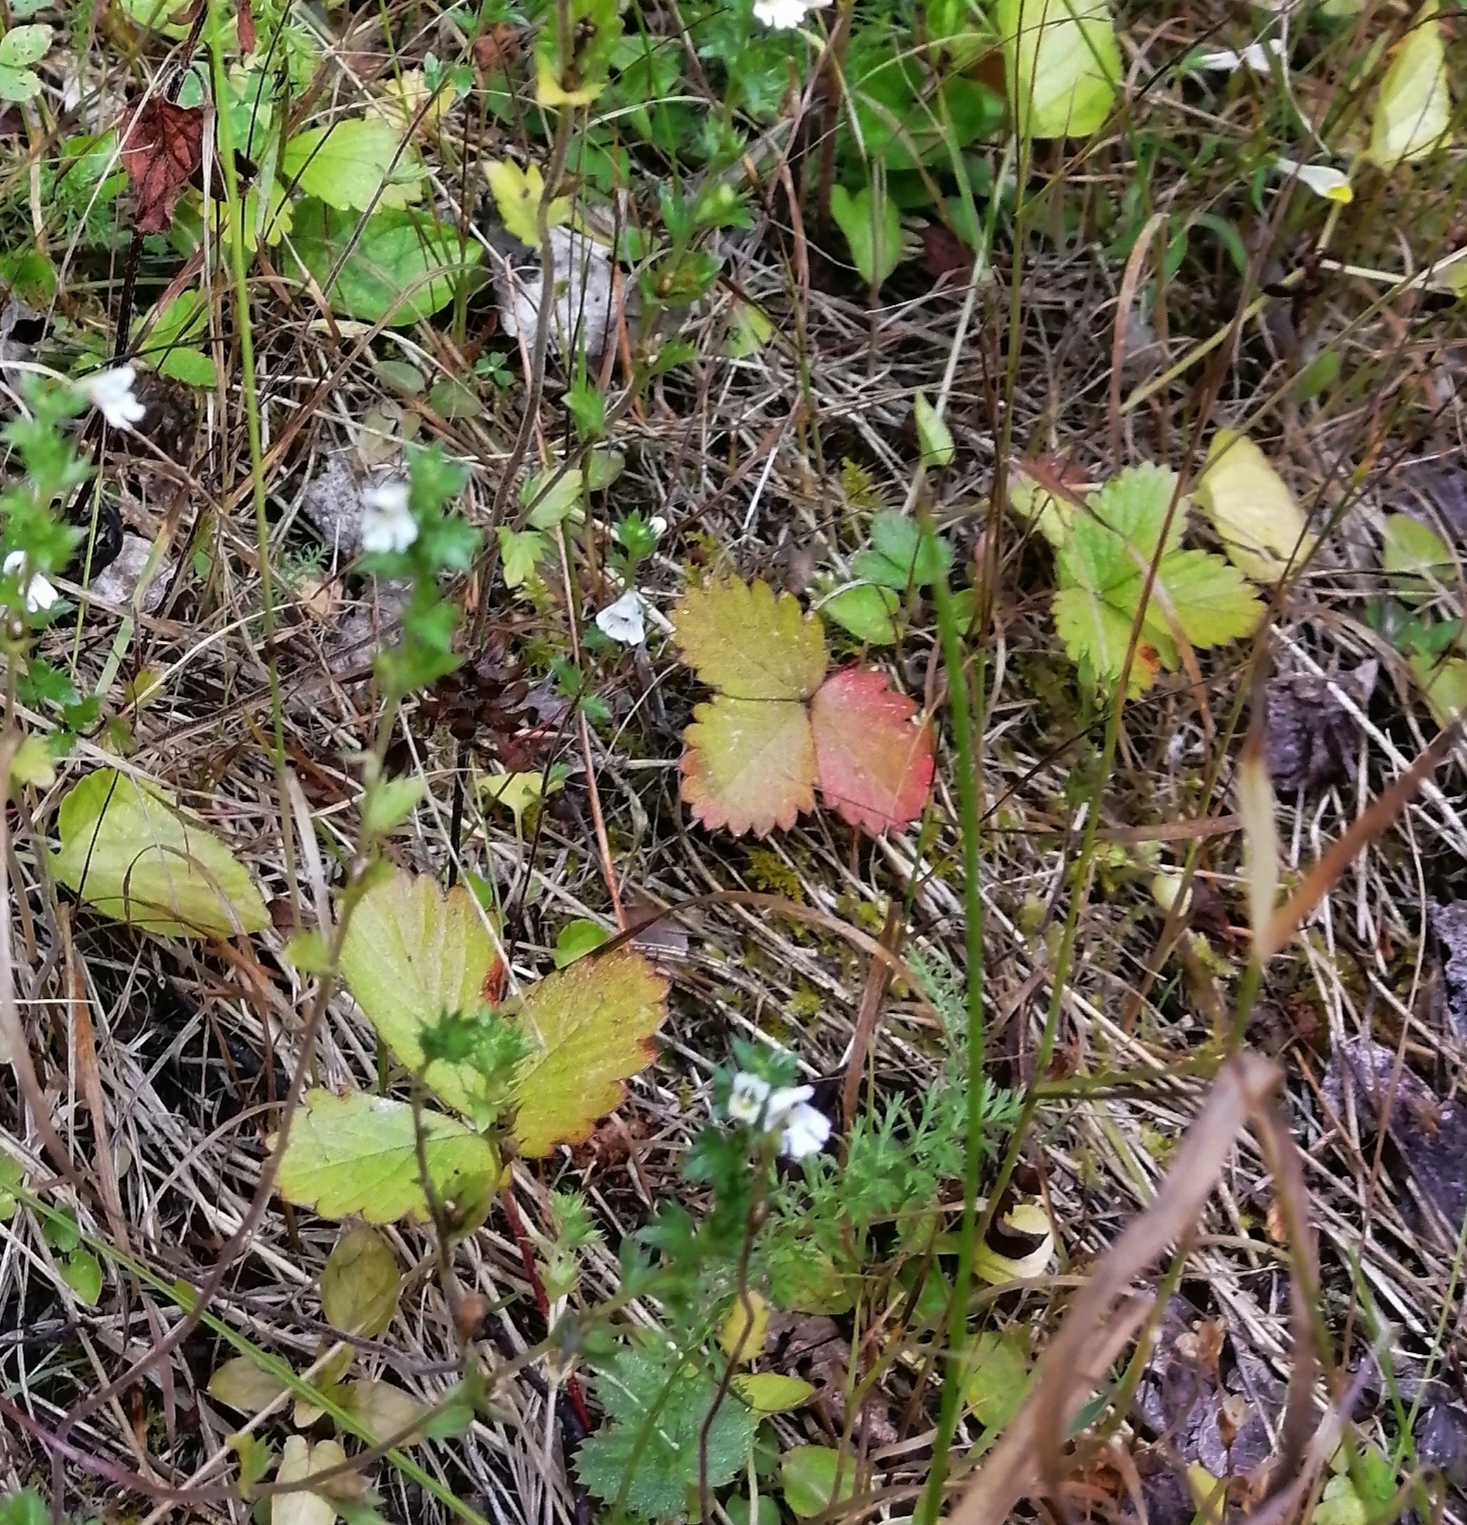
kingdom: Plantae
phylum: Tracheophyta
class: Magnoliopsida
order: Rosales
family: Rosaceae
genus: Fragaria
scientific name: Fragaria vesca
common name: Wild strawberry
